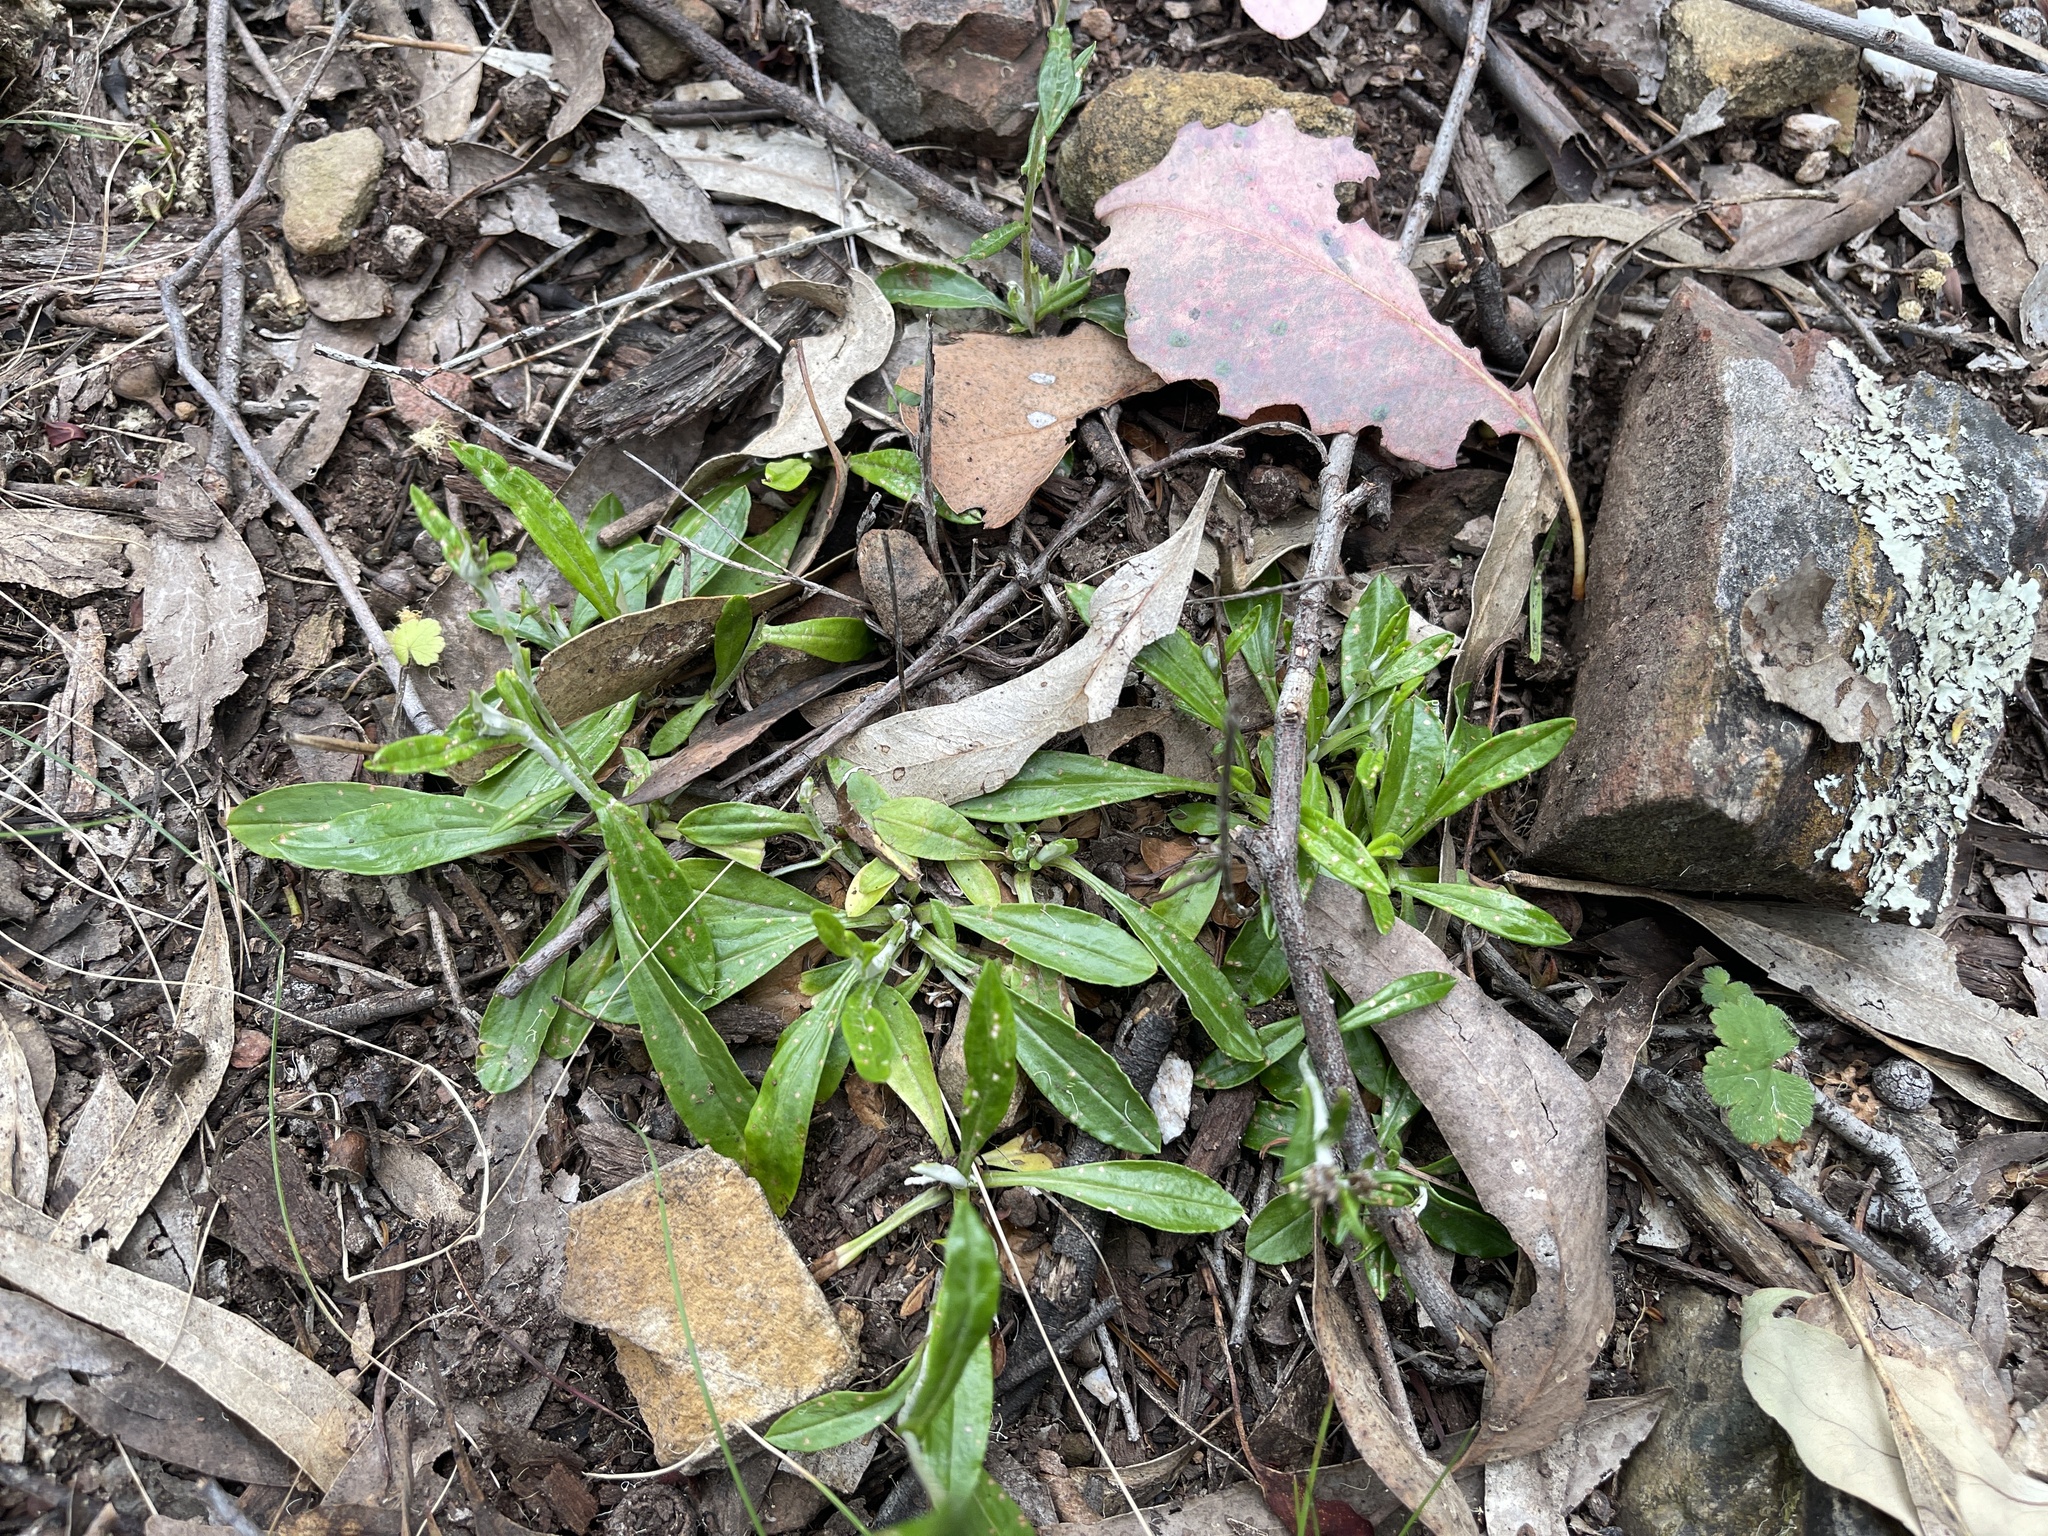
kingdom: Plantae
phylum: Tracheophyta
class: Magnoliopsida
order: Asterales
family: Asteraceae
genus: Euchiton
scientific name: Euchiton japonicus
